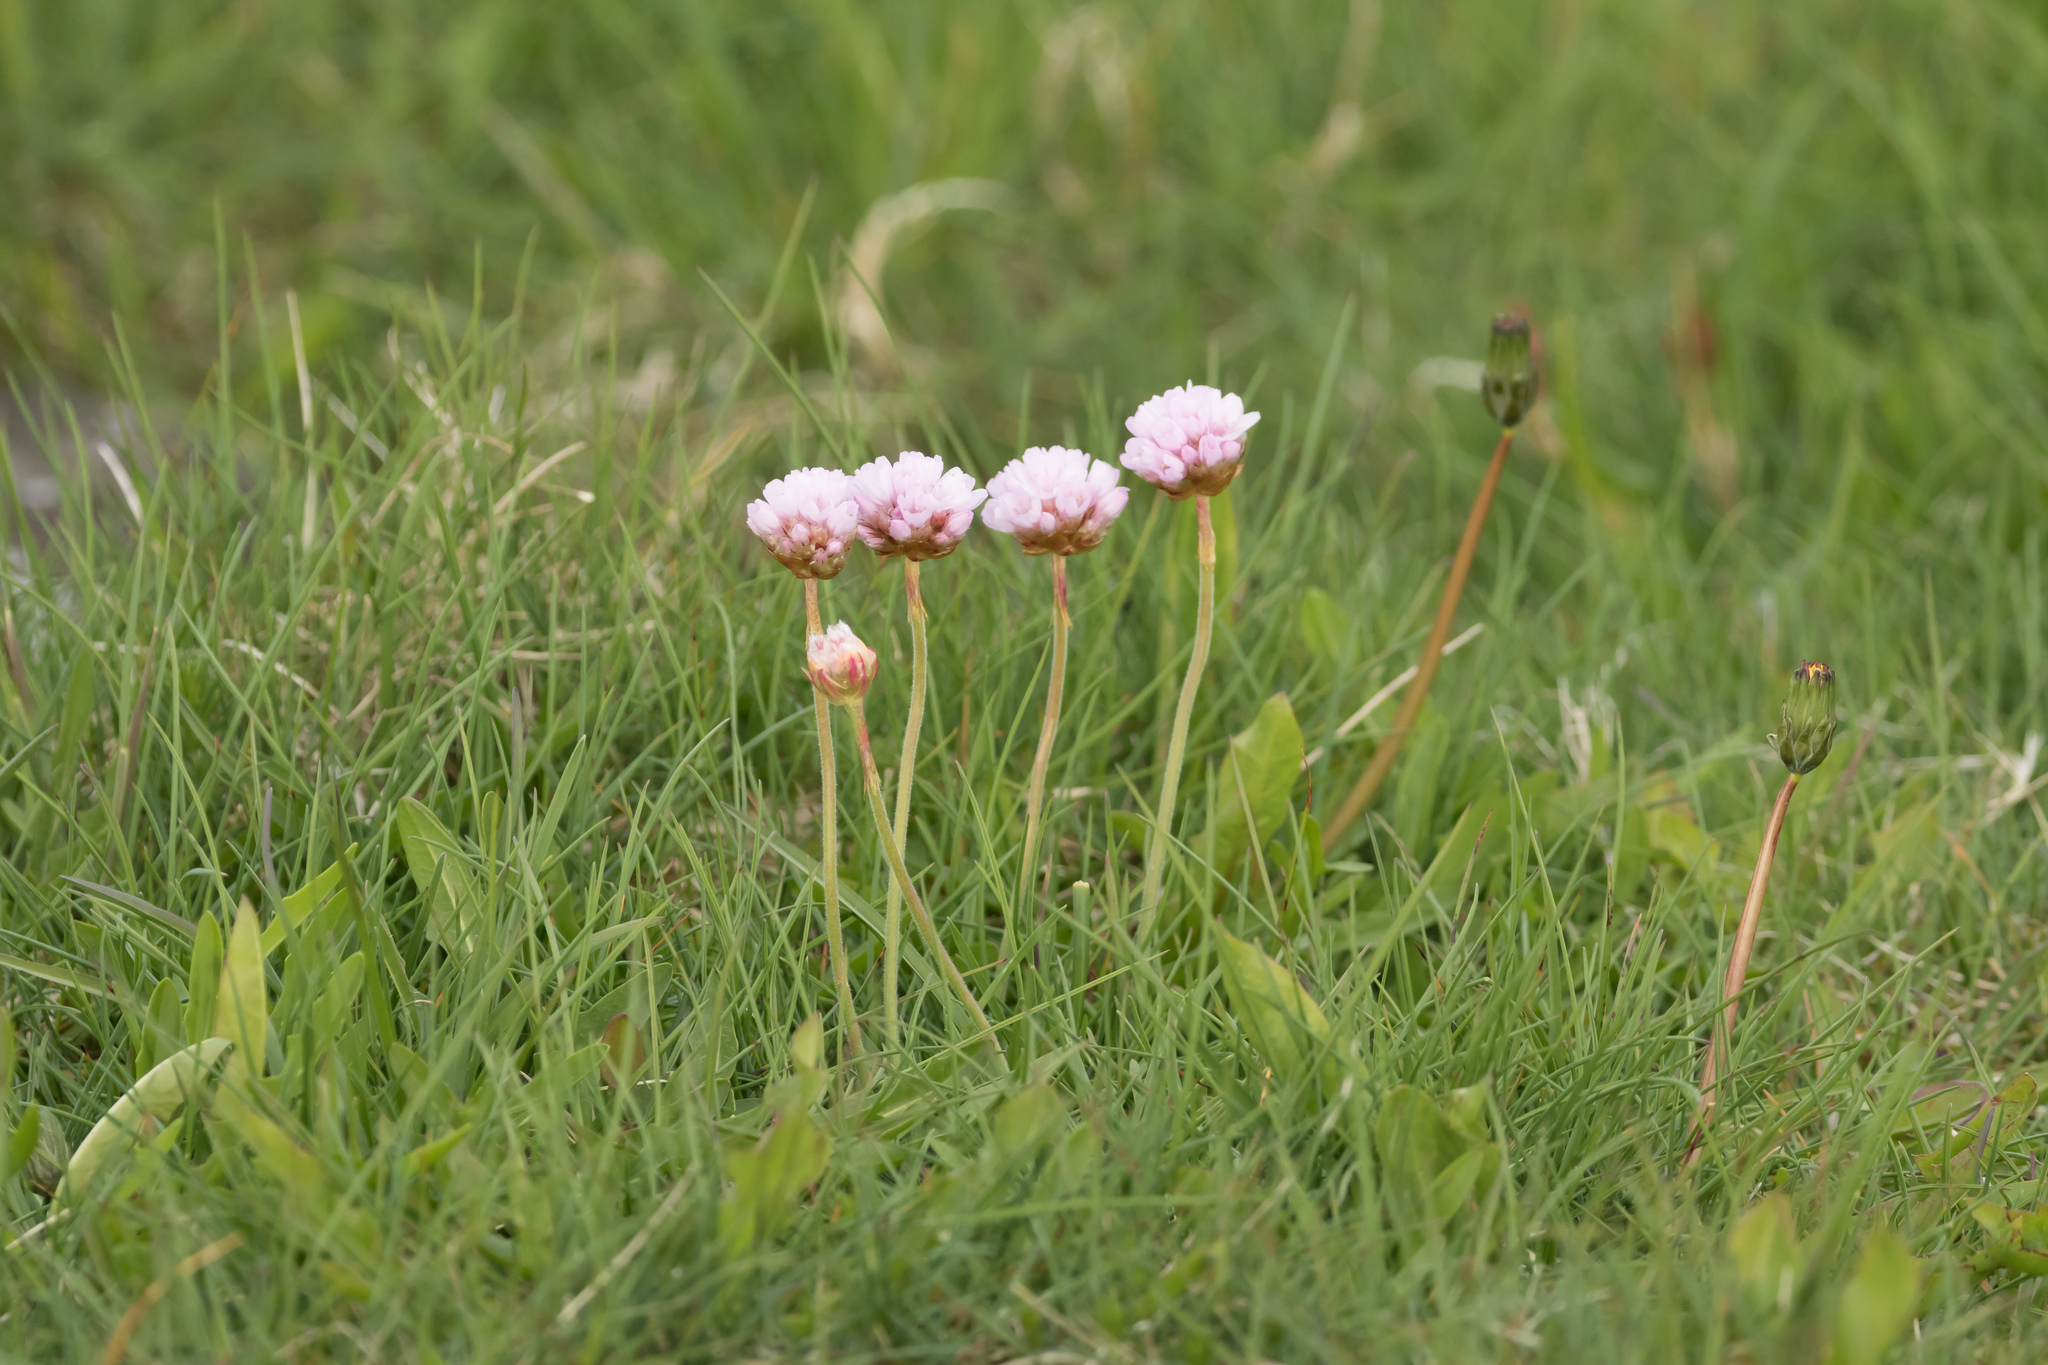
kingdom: Plantae
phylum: Tracheophyta
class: Magnoliopsida
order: Caryophyllales
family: Plumbaginaceae
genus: Armeria
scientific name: Armeria maritima
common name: Thrift
